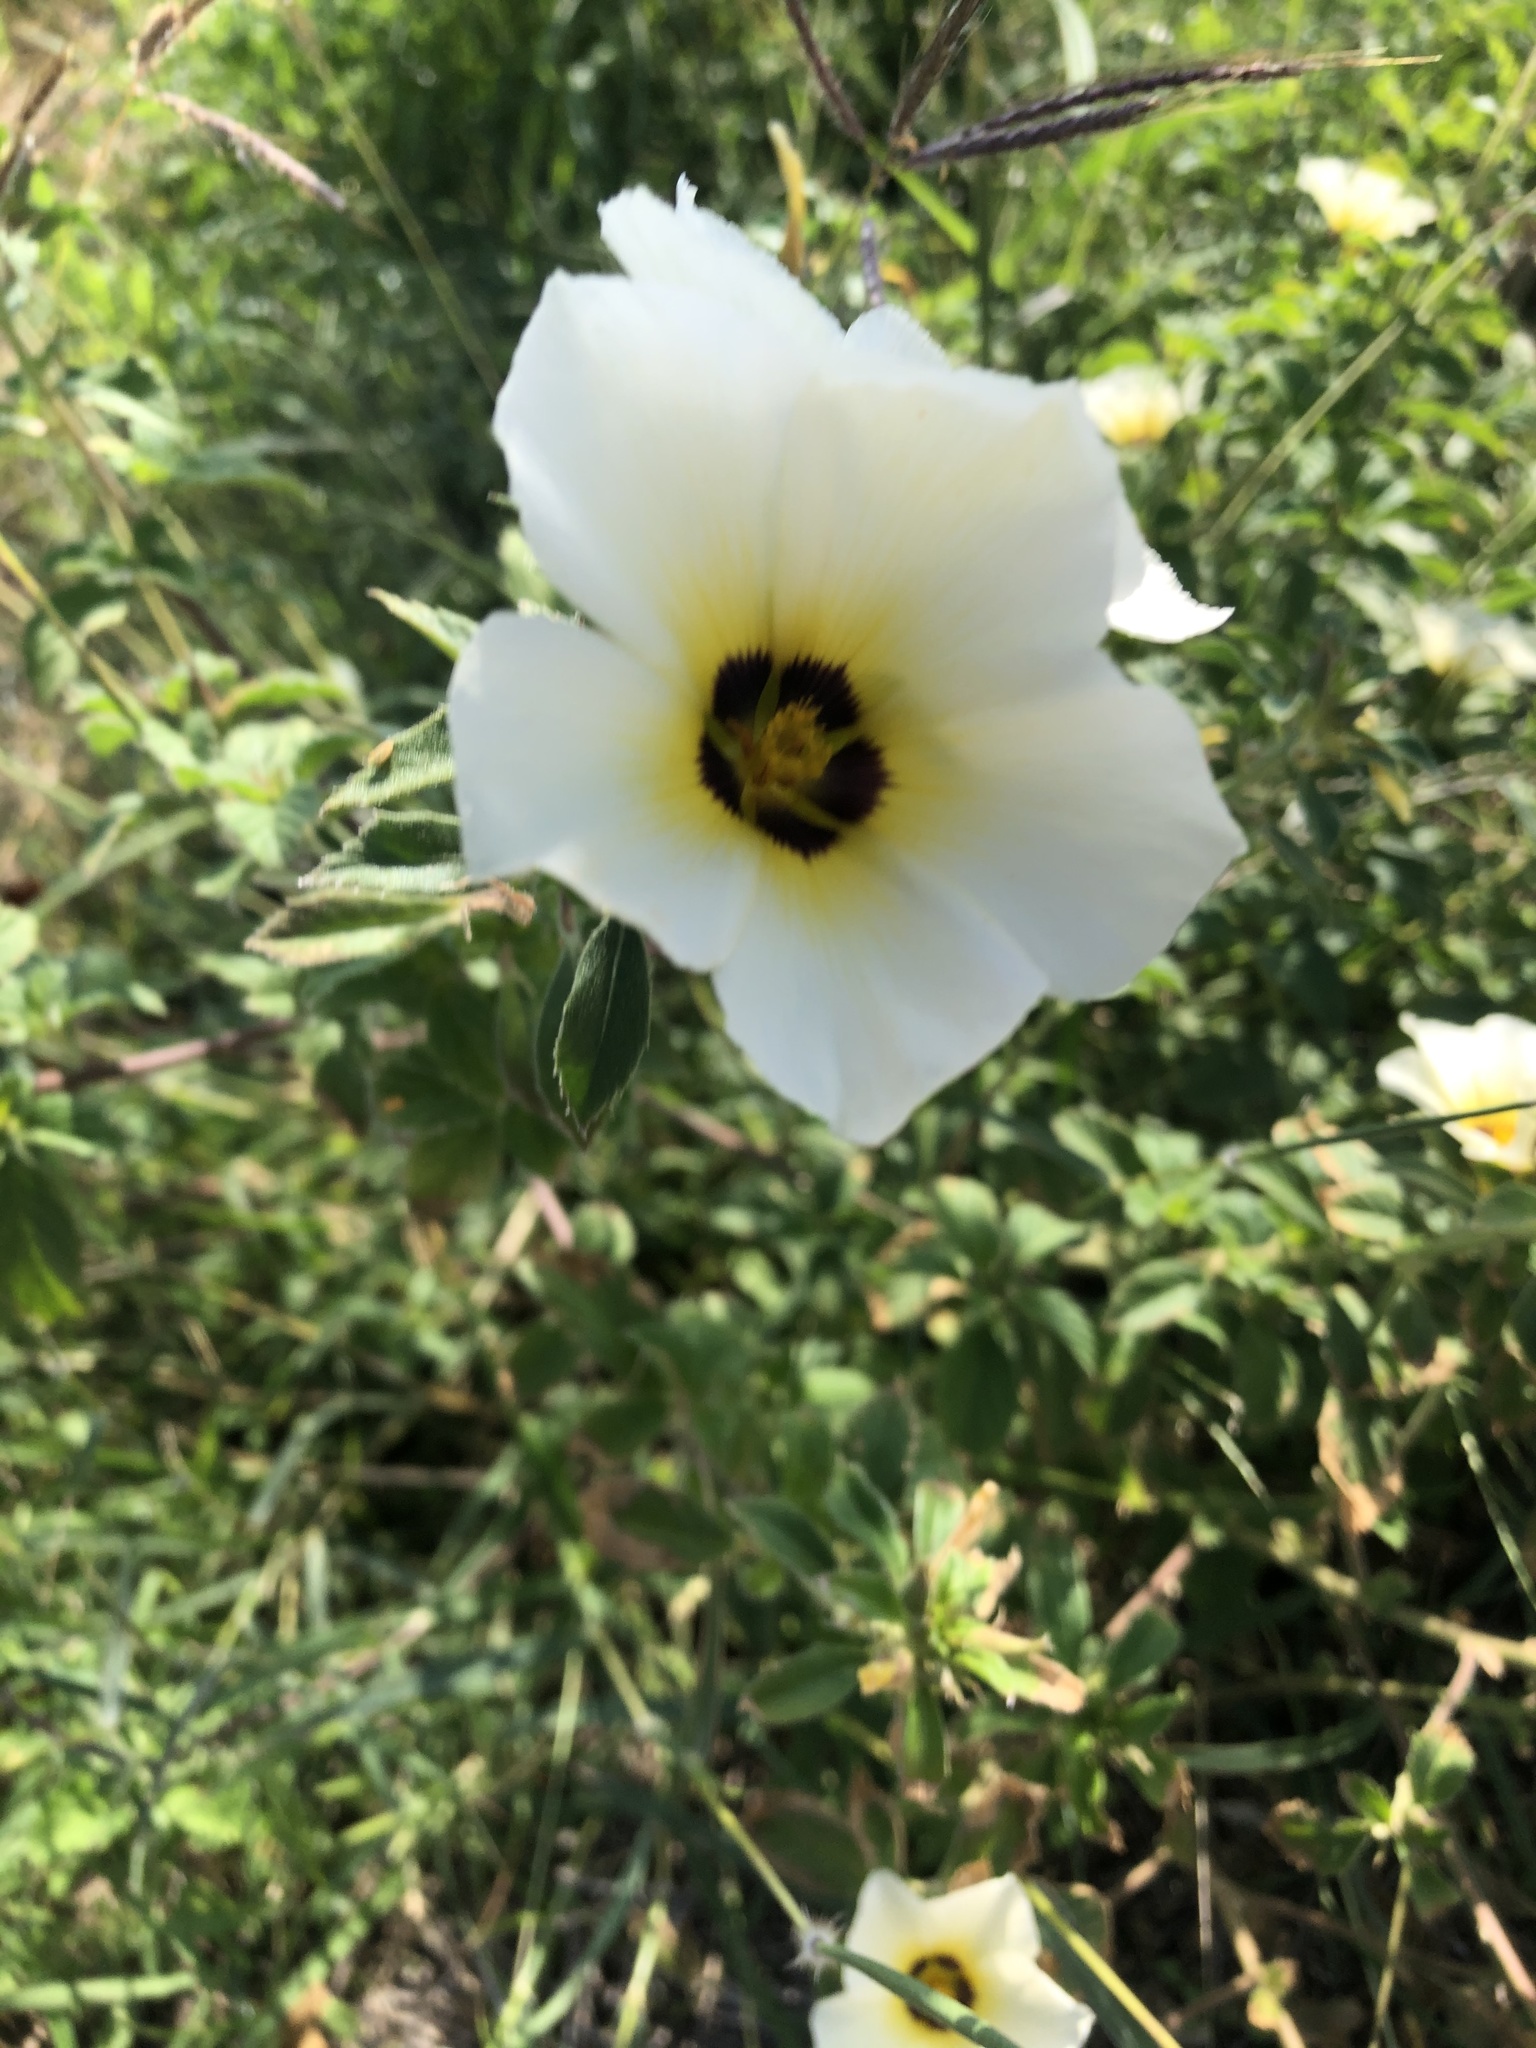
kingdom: Plantae
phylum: Tracheophyta
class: Magnoliopsida
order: Malpighiales
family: Turneraceae
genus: Turnera
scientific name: Turnera subulata
